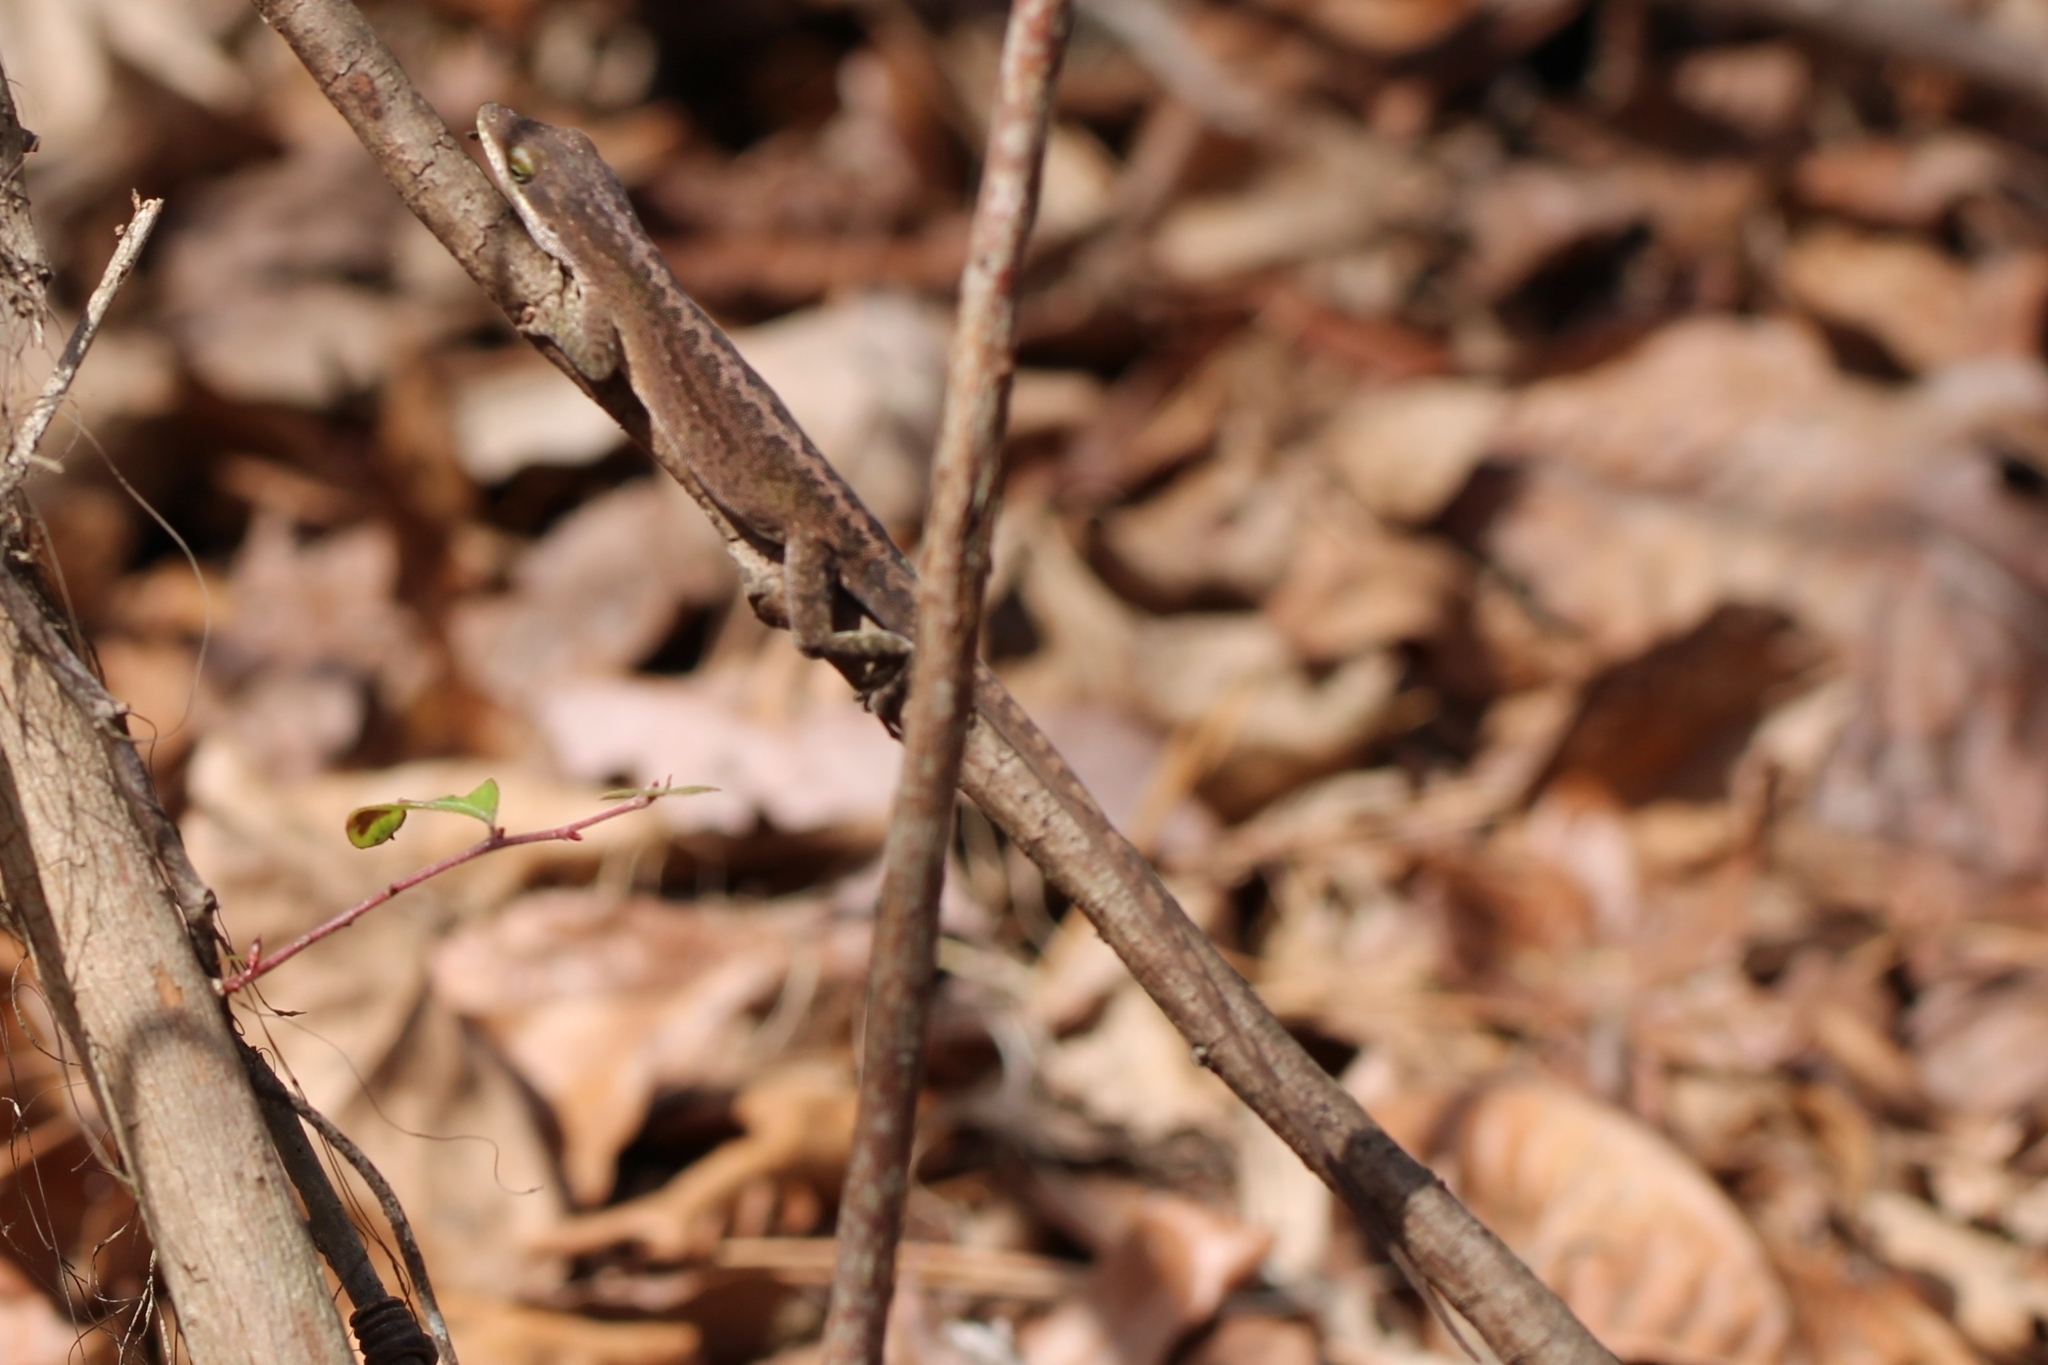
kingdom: Animalia
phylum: Chordata
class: Squamata
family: Dactyloidae
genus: Anolis
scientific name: Anolis carolinensis
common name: Green anole
